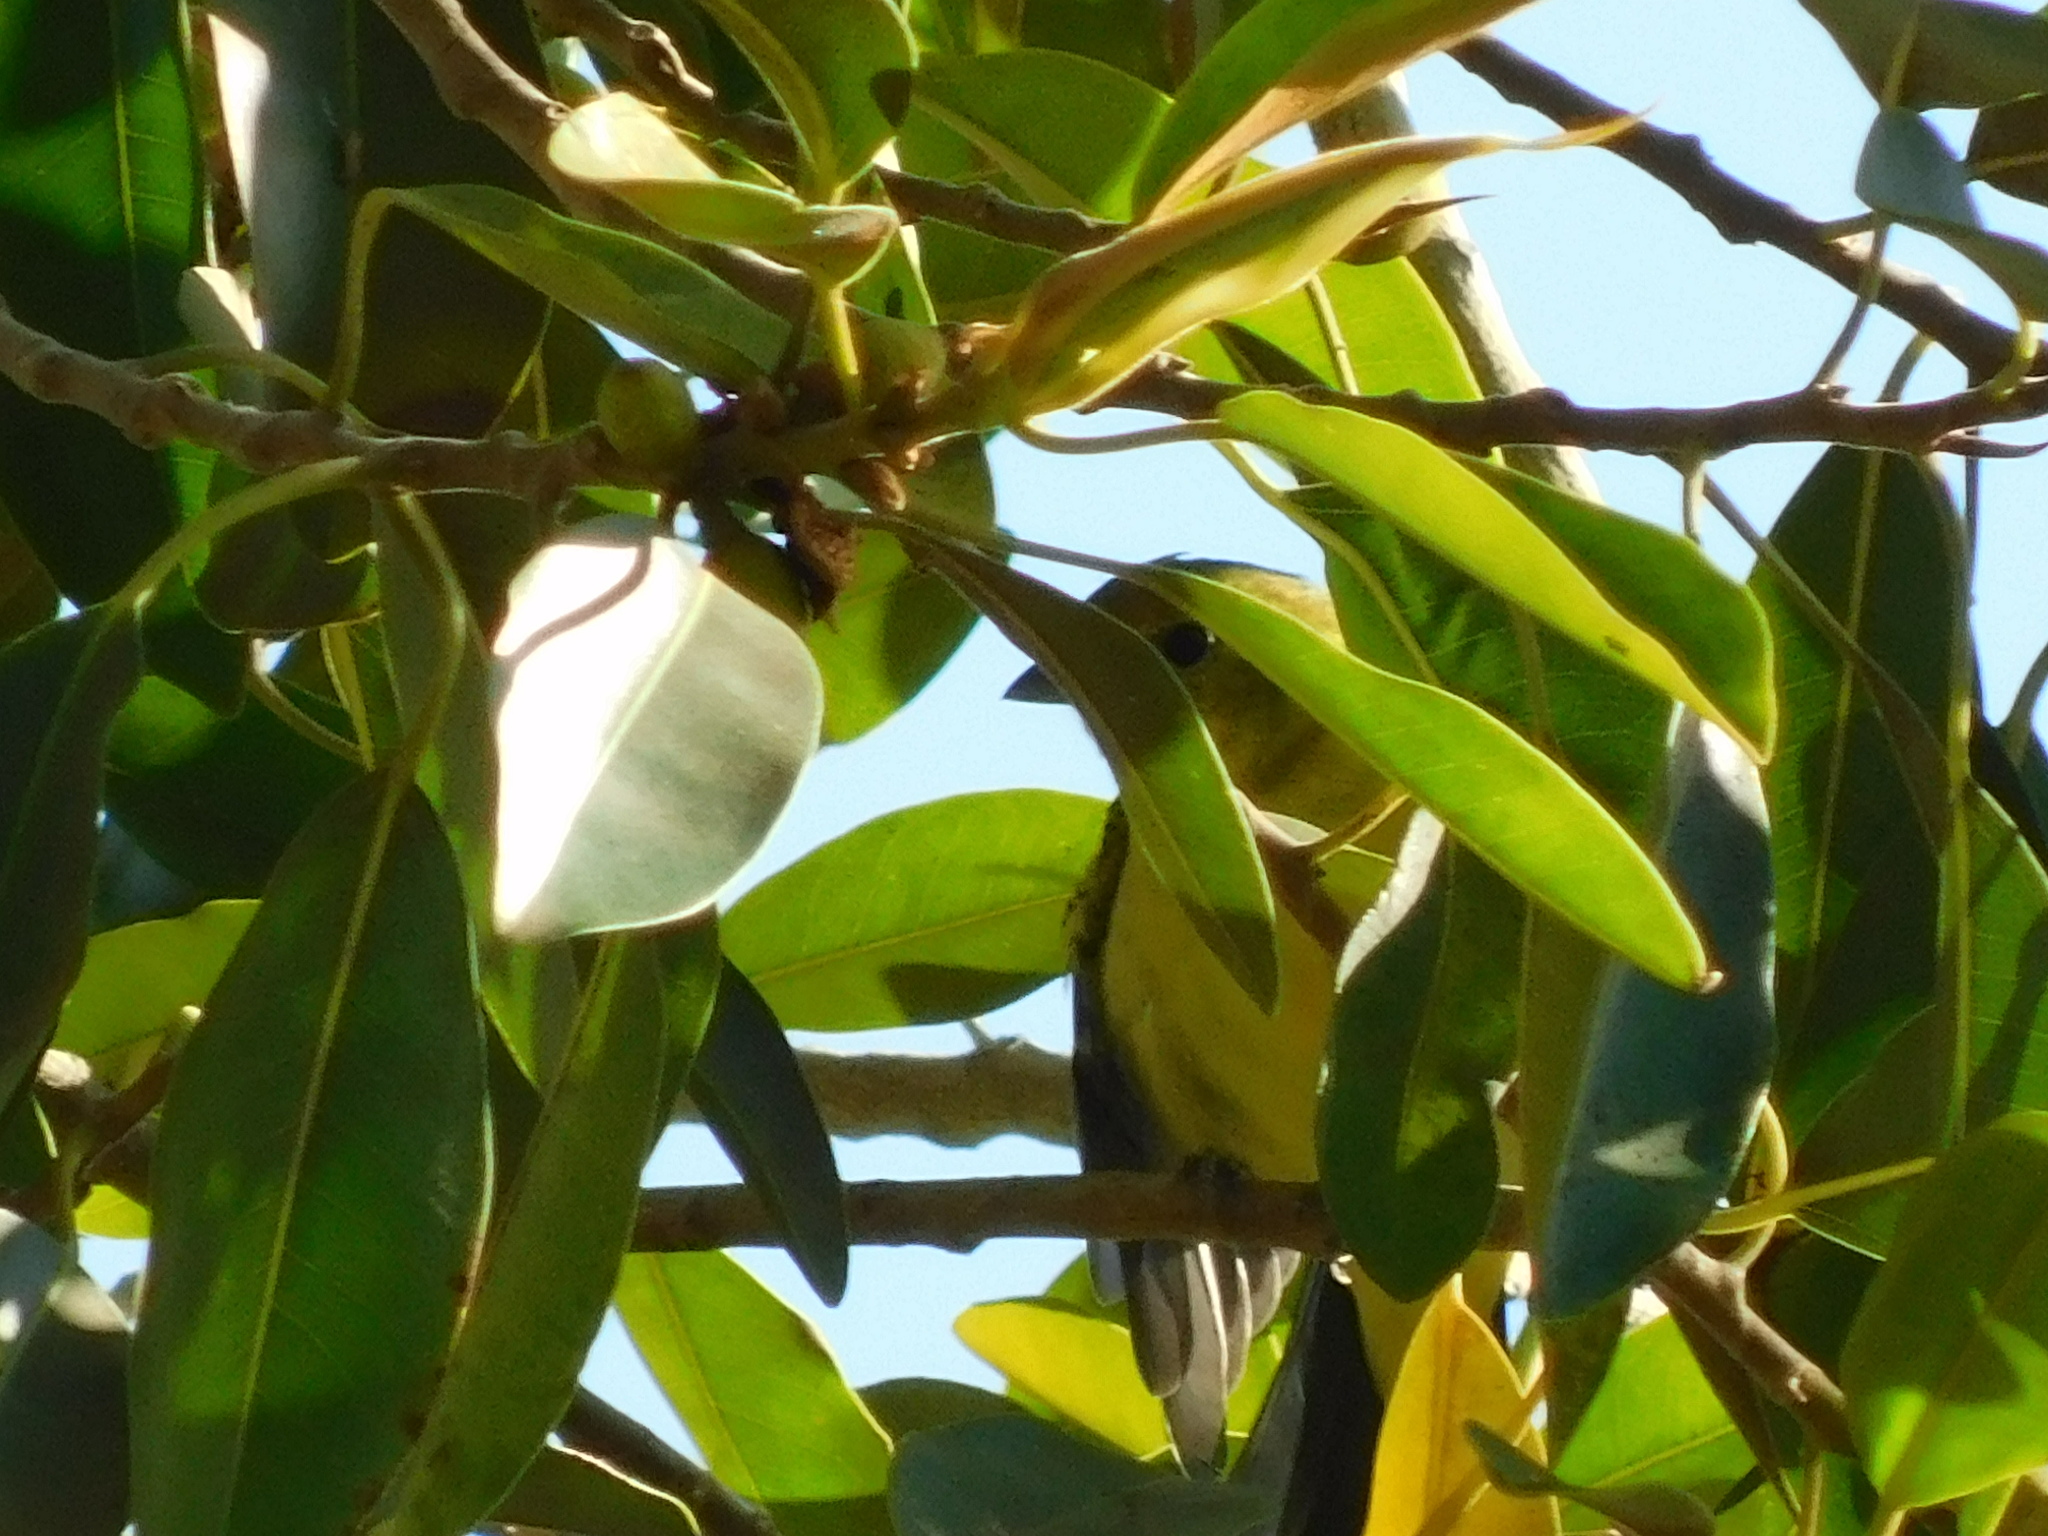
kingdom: Animalia
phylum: Chordata
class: Aves
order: Passeriformes
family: Cardinalidae
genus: Piranga
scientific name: Piranga ludoviciana
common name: Western tanager
